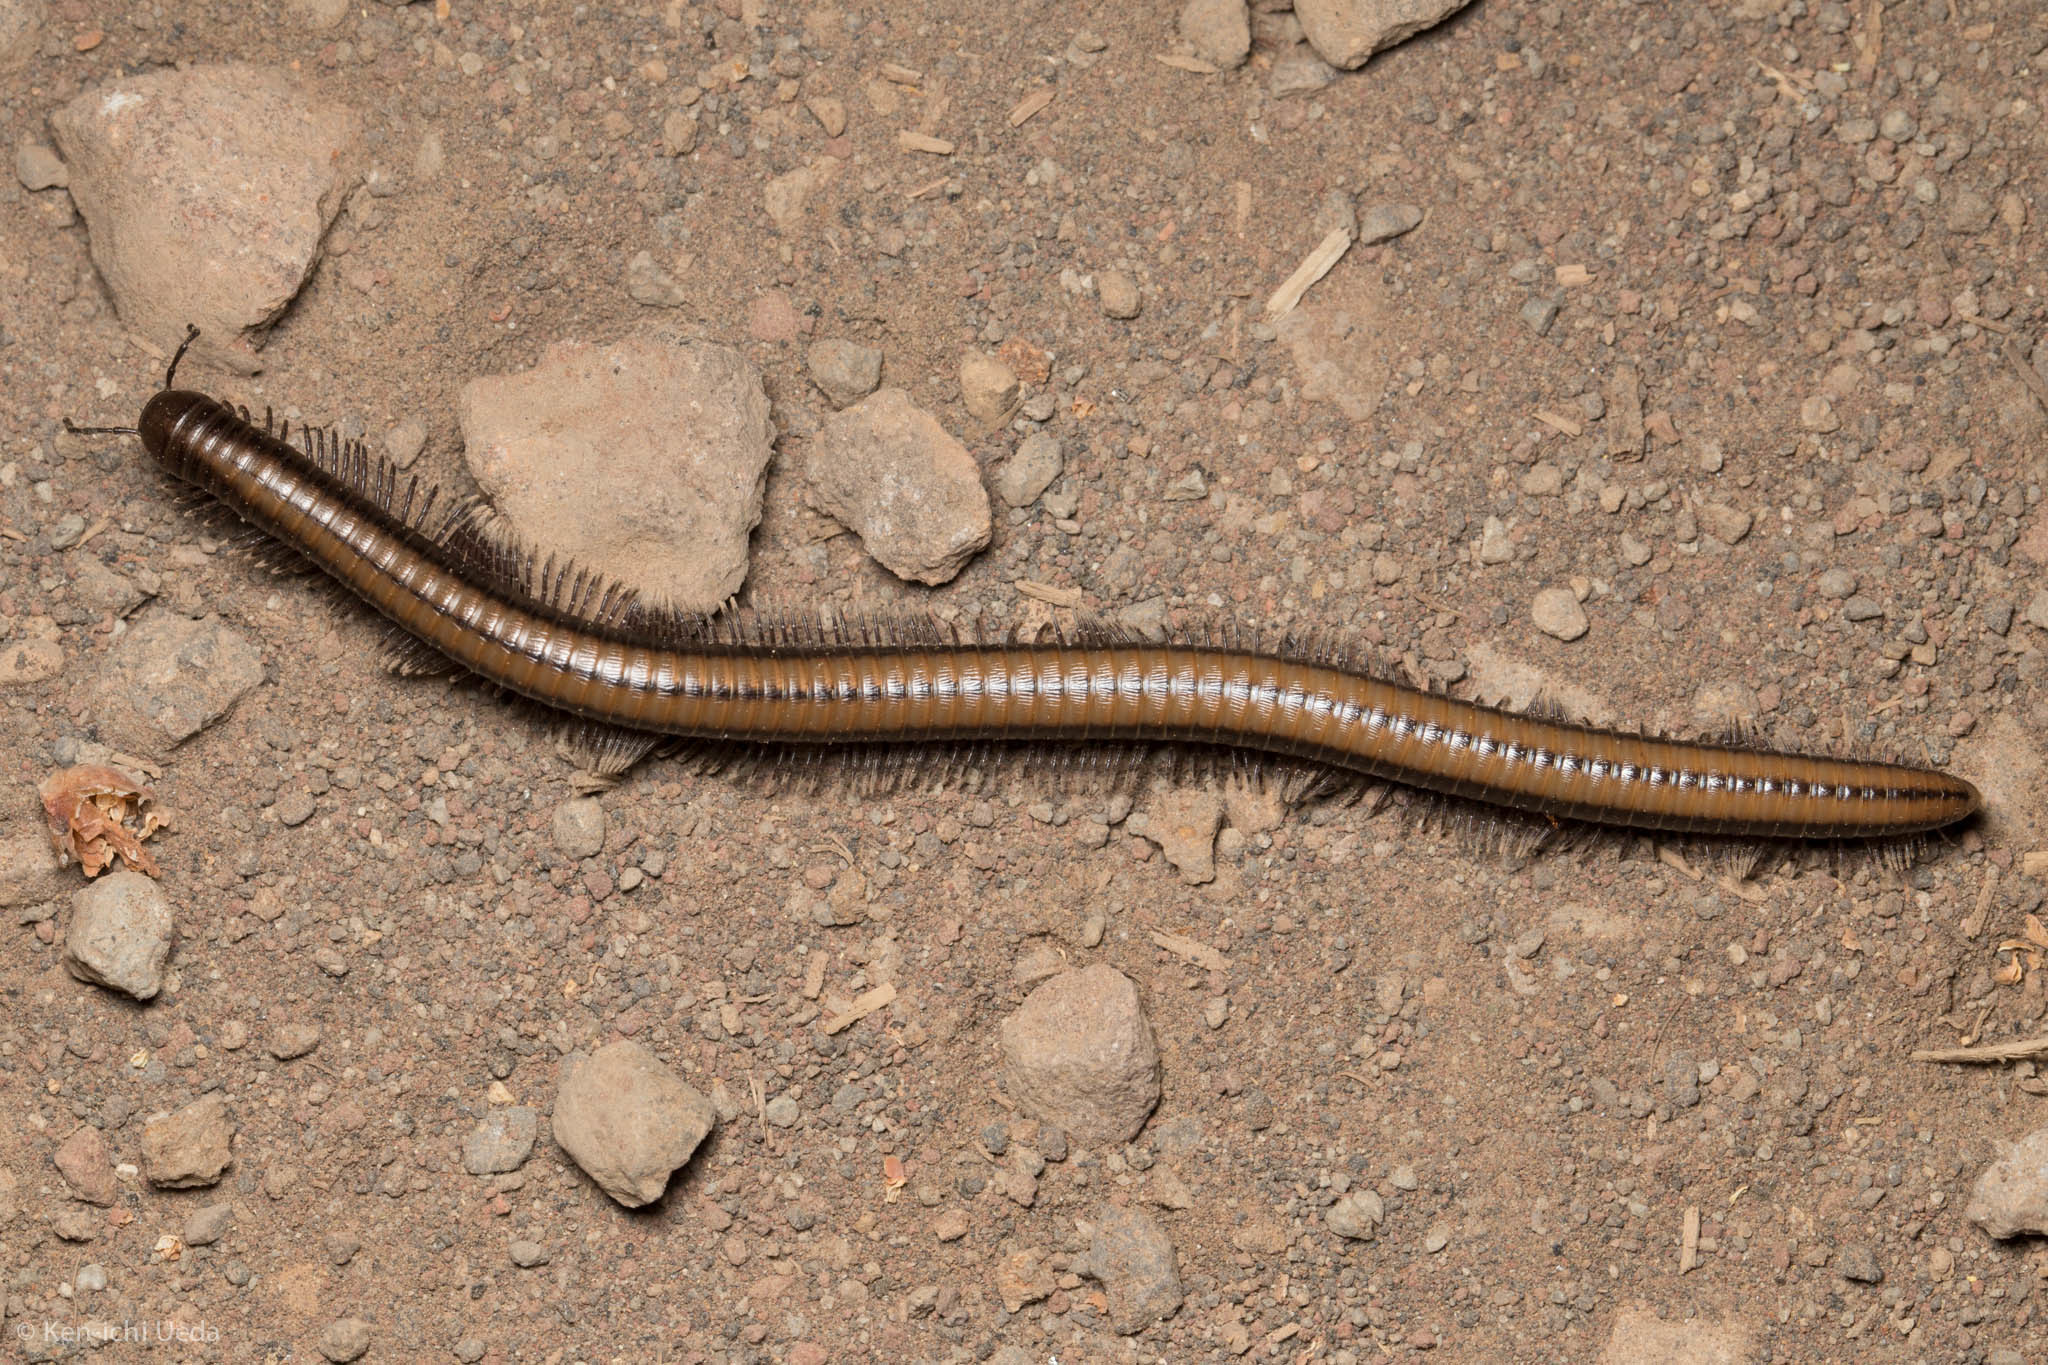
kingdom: Animalia
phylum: Arthropoda
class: Diplopoda
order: Julida
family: Paeromopodidae
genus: Californiulus
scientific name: Californiulus yosemitensis
